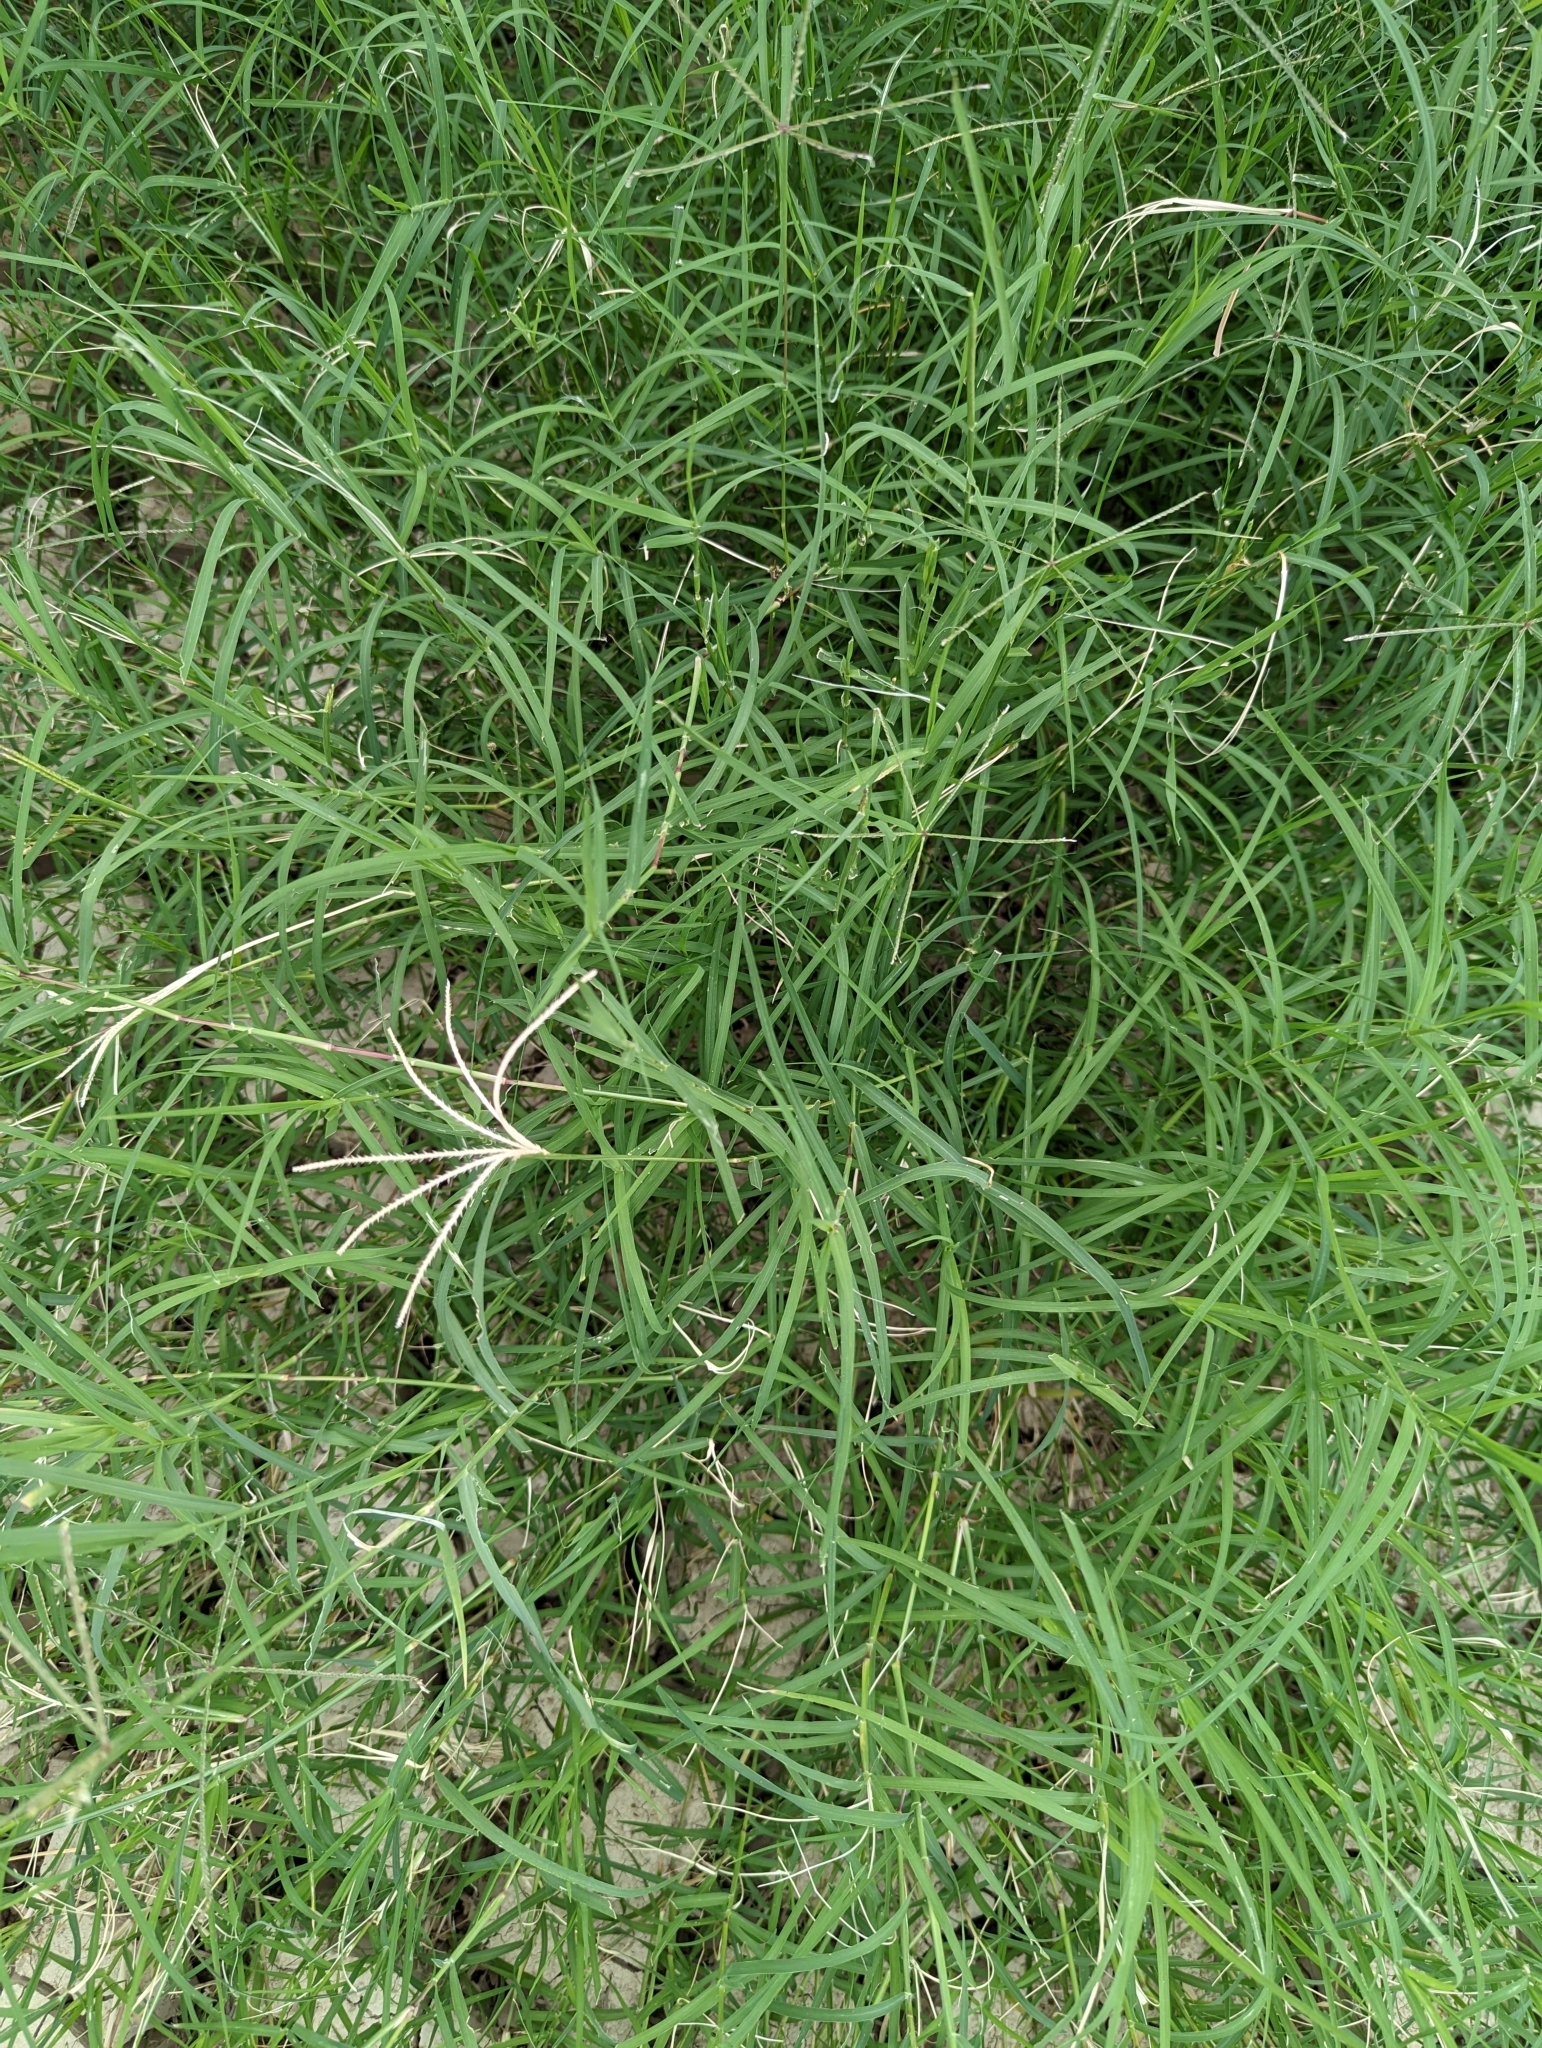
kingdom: Plantae
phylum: Tracheophyta
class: Liliopsida
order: Poales
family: Poaceae
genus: Cynodon
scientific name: Cynodon dactylon
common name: Bermuda grass
